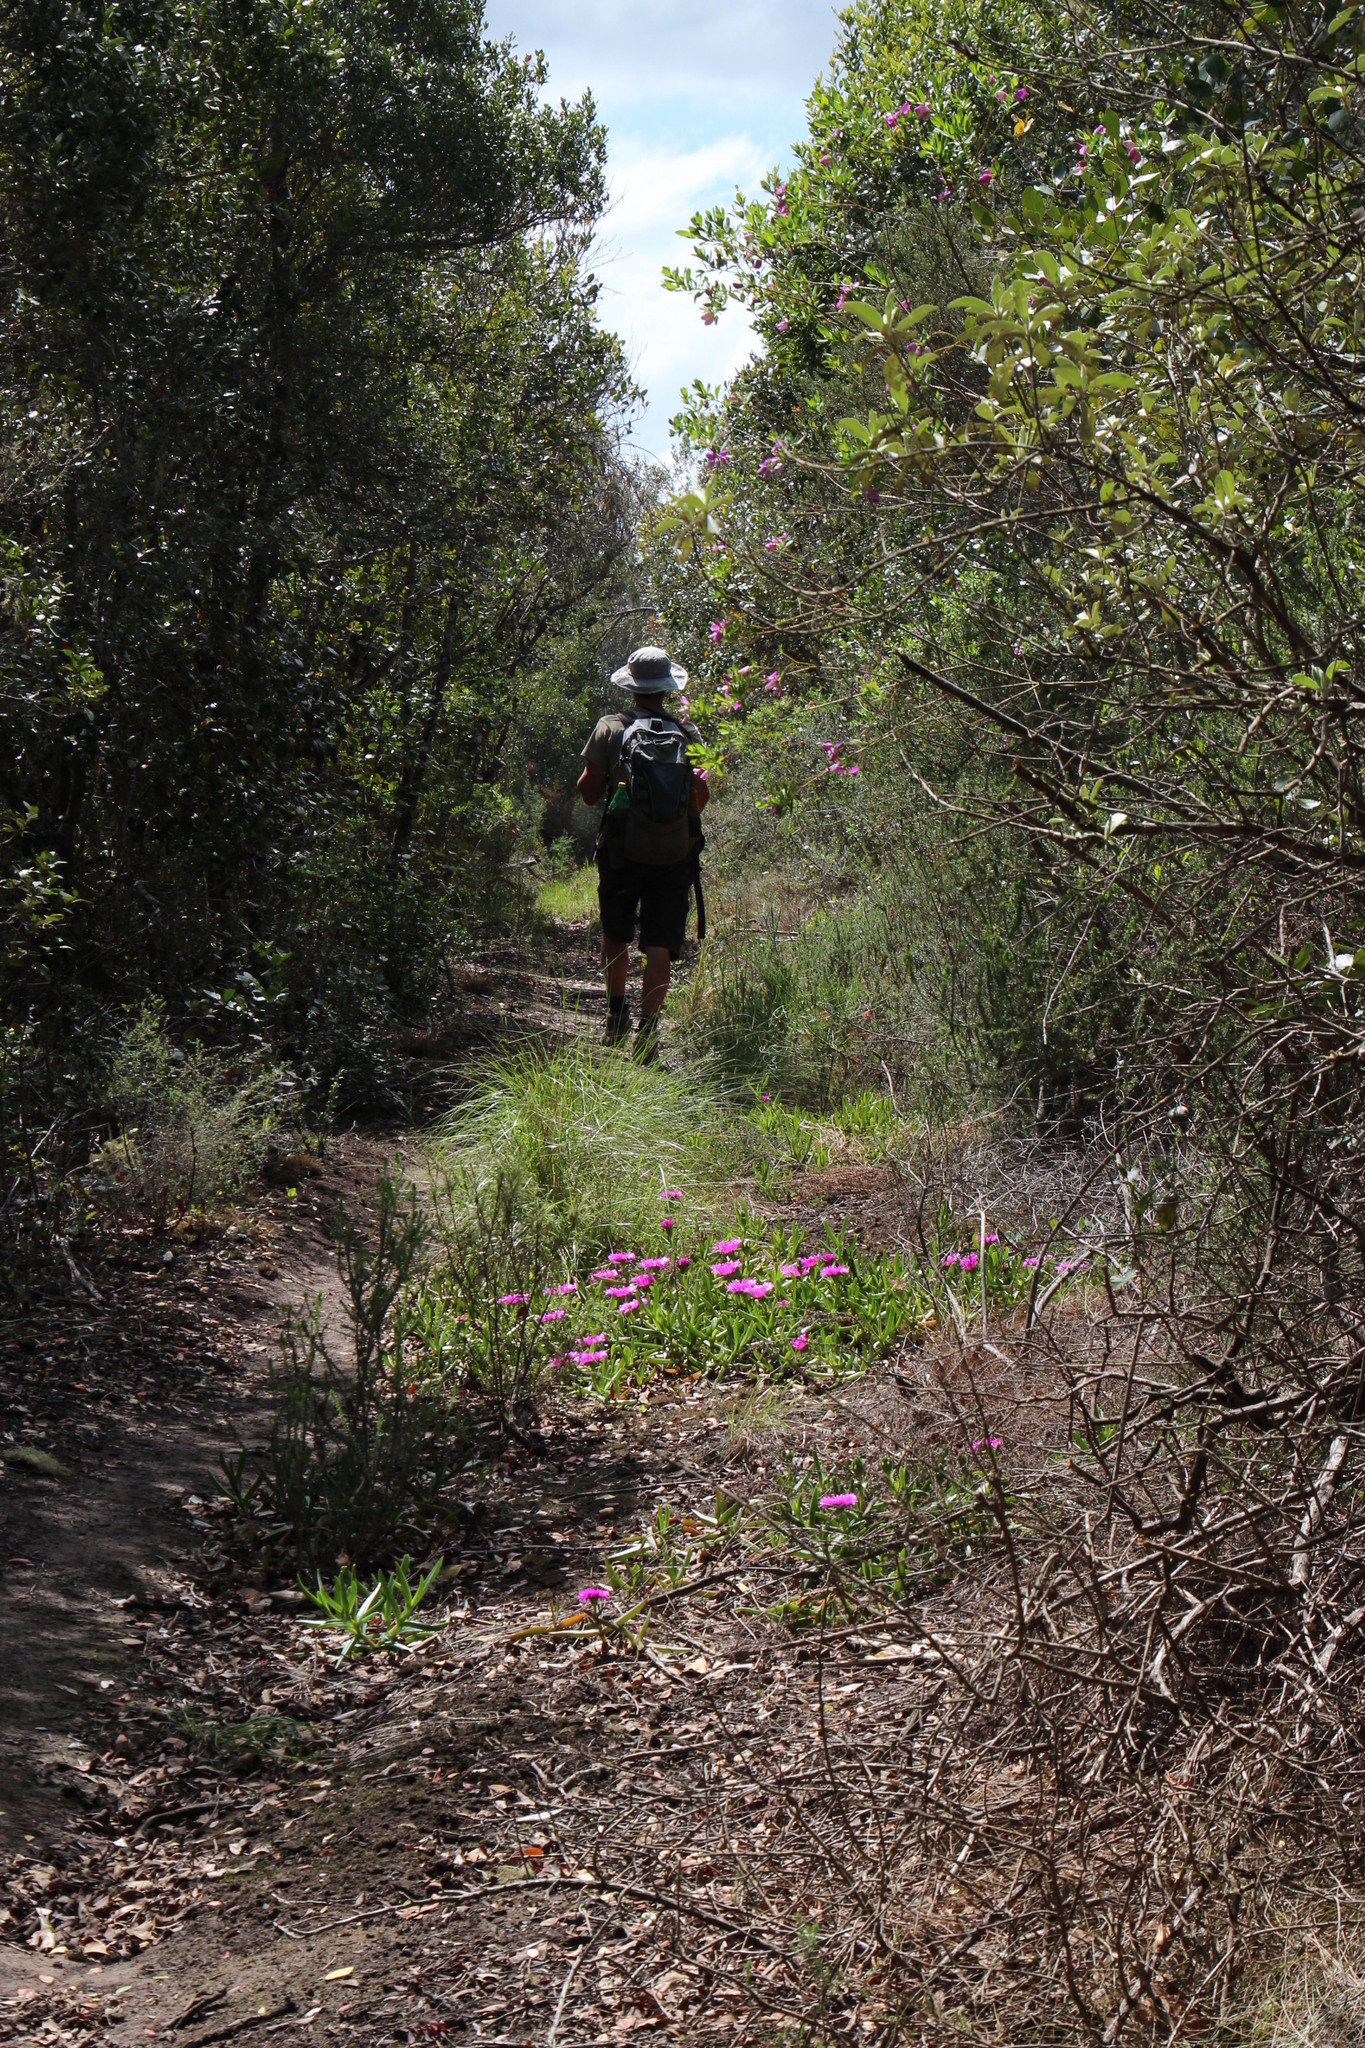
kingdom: Plantae
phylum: Tracheophyta
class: Magnoliopsida
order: Caryophyllales
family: Aizoaceae
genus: Carpobrotus
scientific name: Carpobrotus deliciosus
